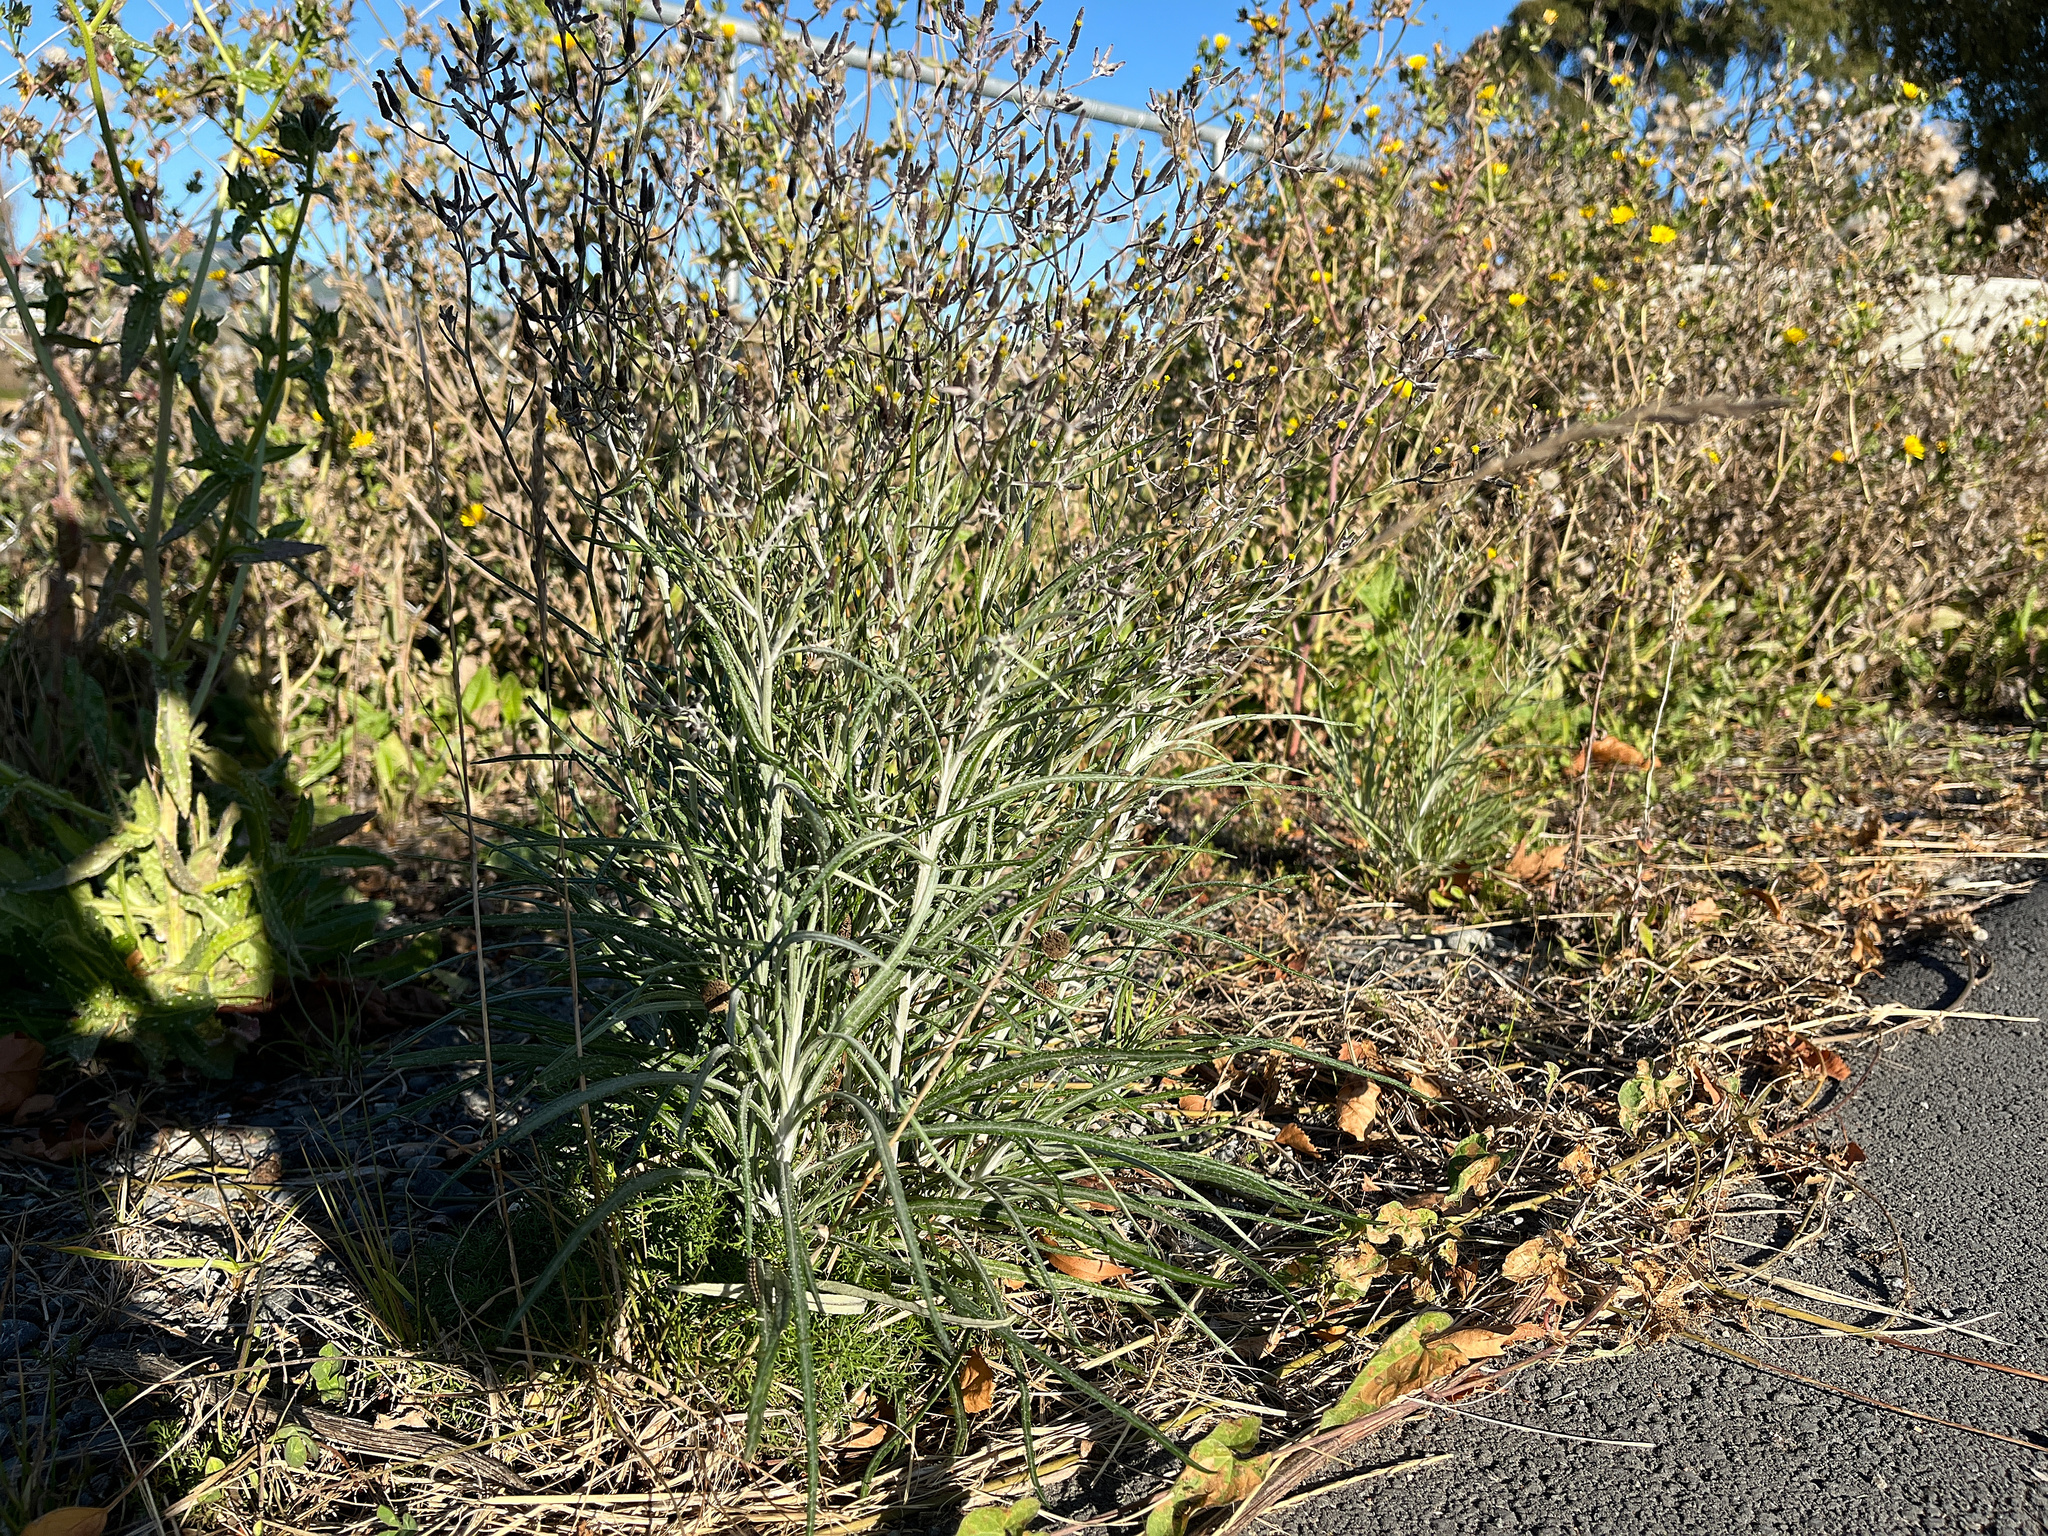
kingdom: Plantae
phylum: Tracheophyta
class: Magnoliopsida
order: Asterales
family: Asteraceae
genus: Senecio
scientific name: Senecio quadridentatus
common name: Cotton fireweed
